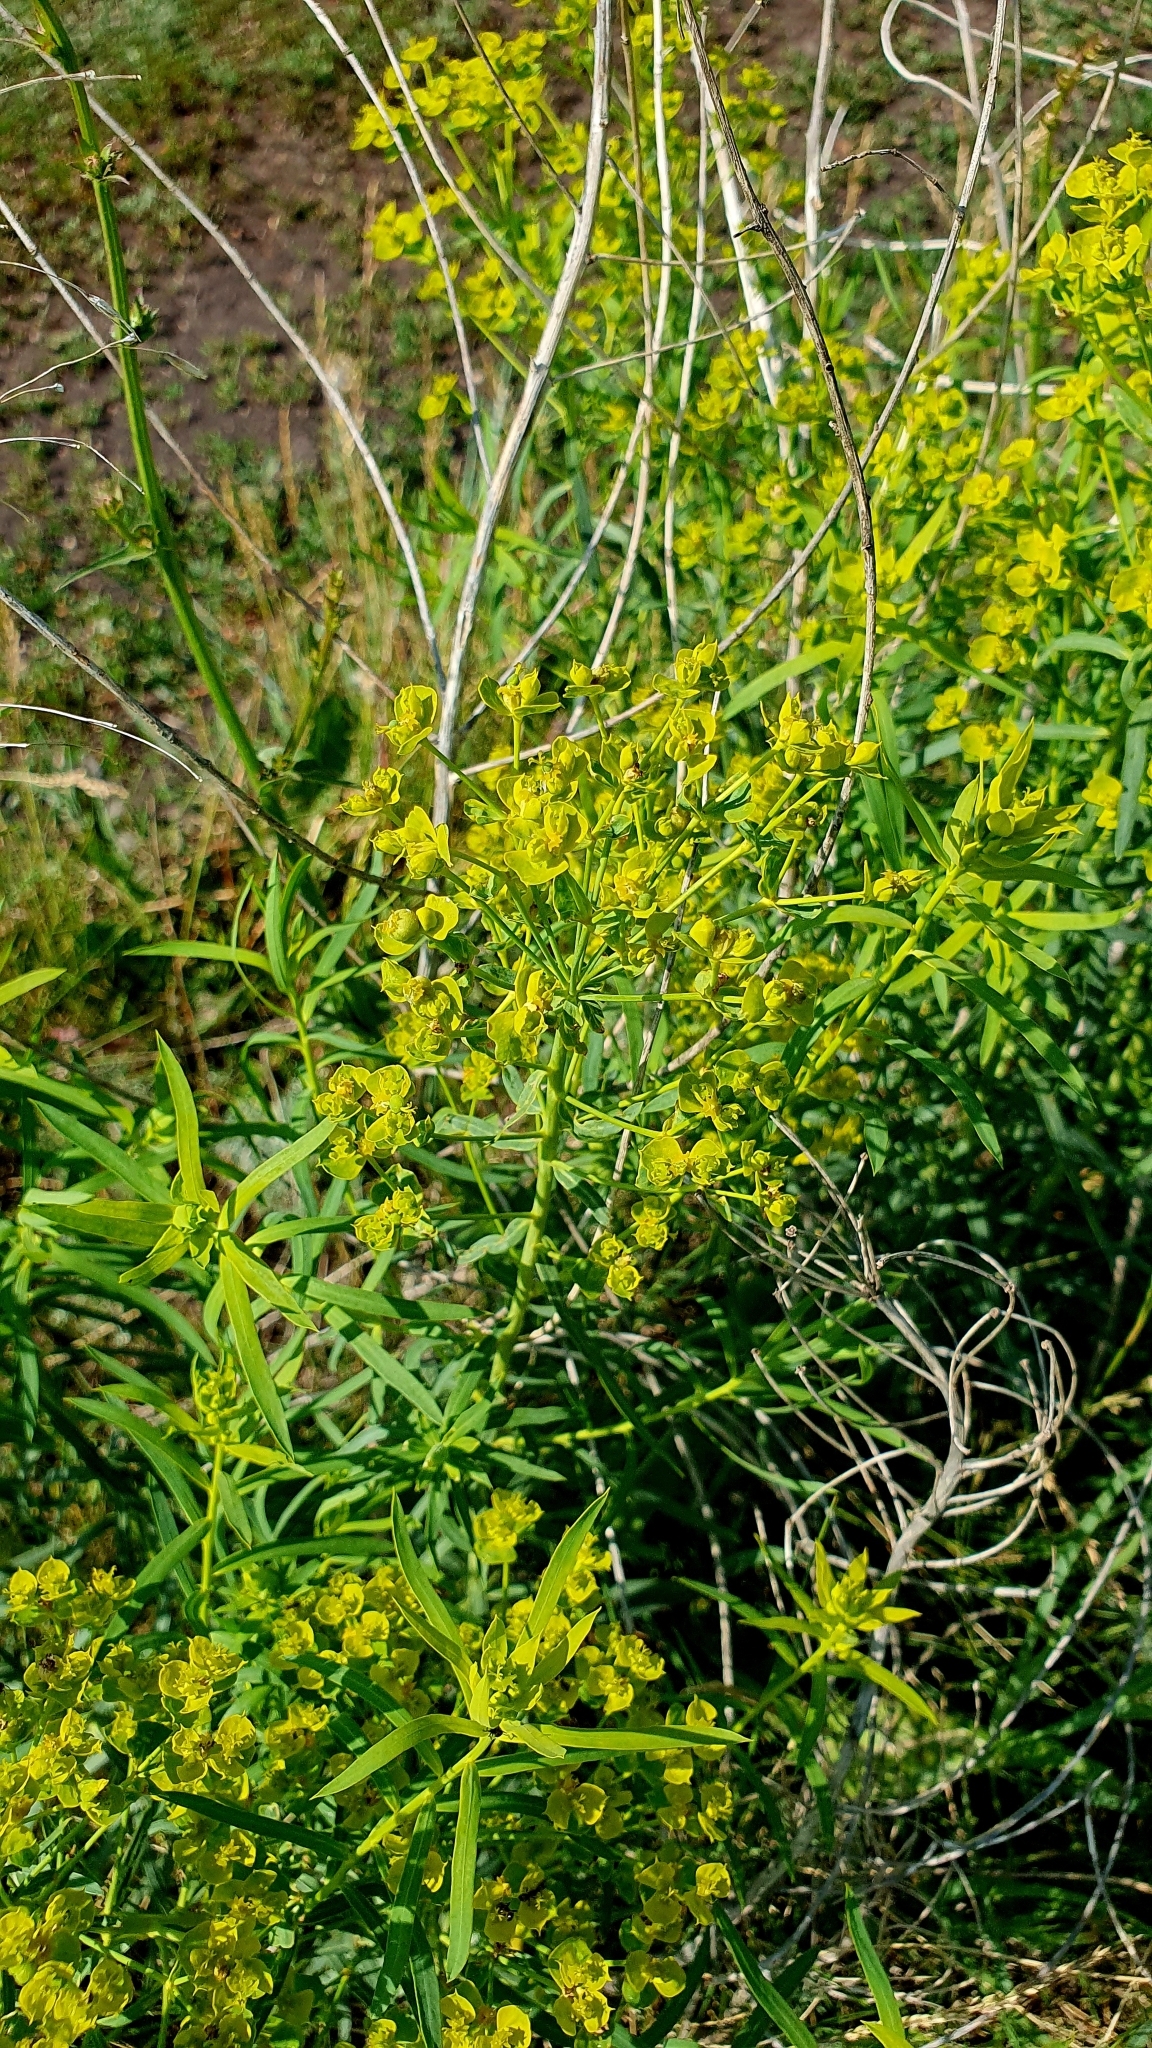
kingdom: Plantae
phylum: Tracheophyta
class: Magnoliopsida
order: Malpighiales
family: Euphorbiaceae
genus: Euphorbia
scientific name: Euphorbia virgata
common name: Leafy spurge
